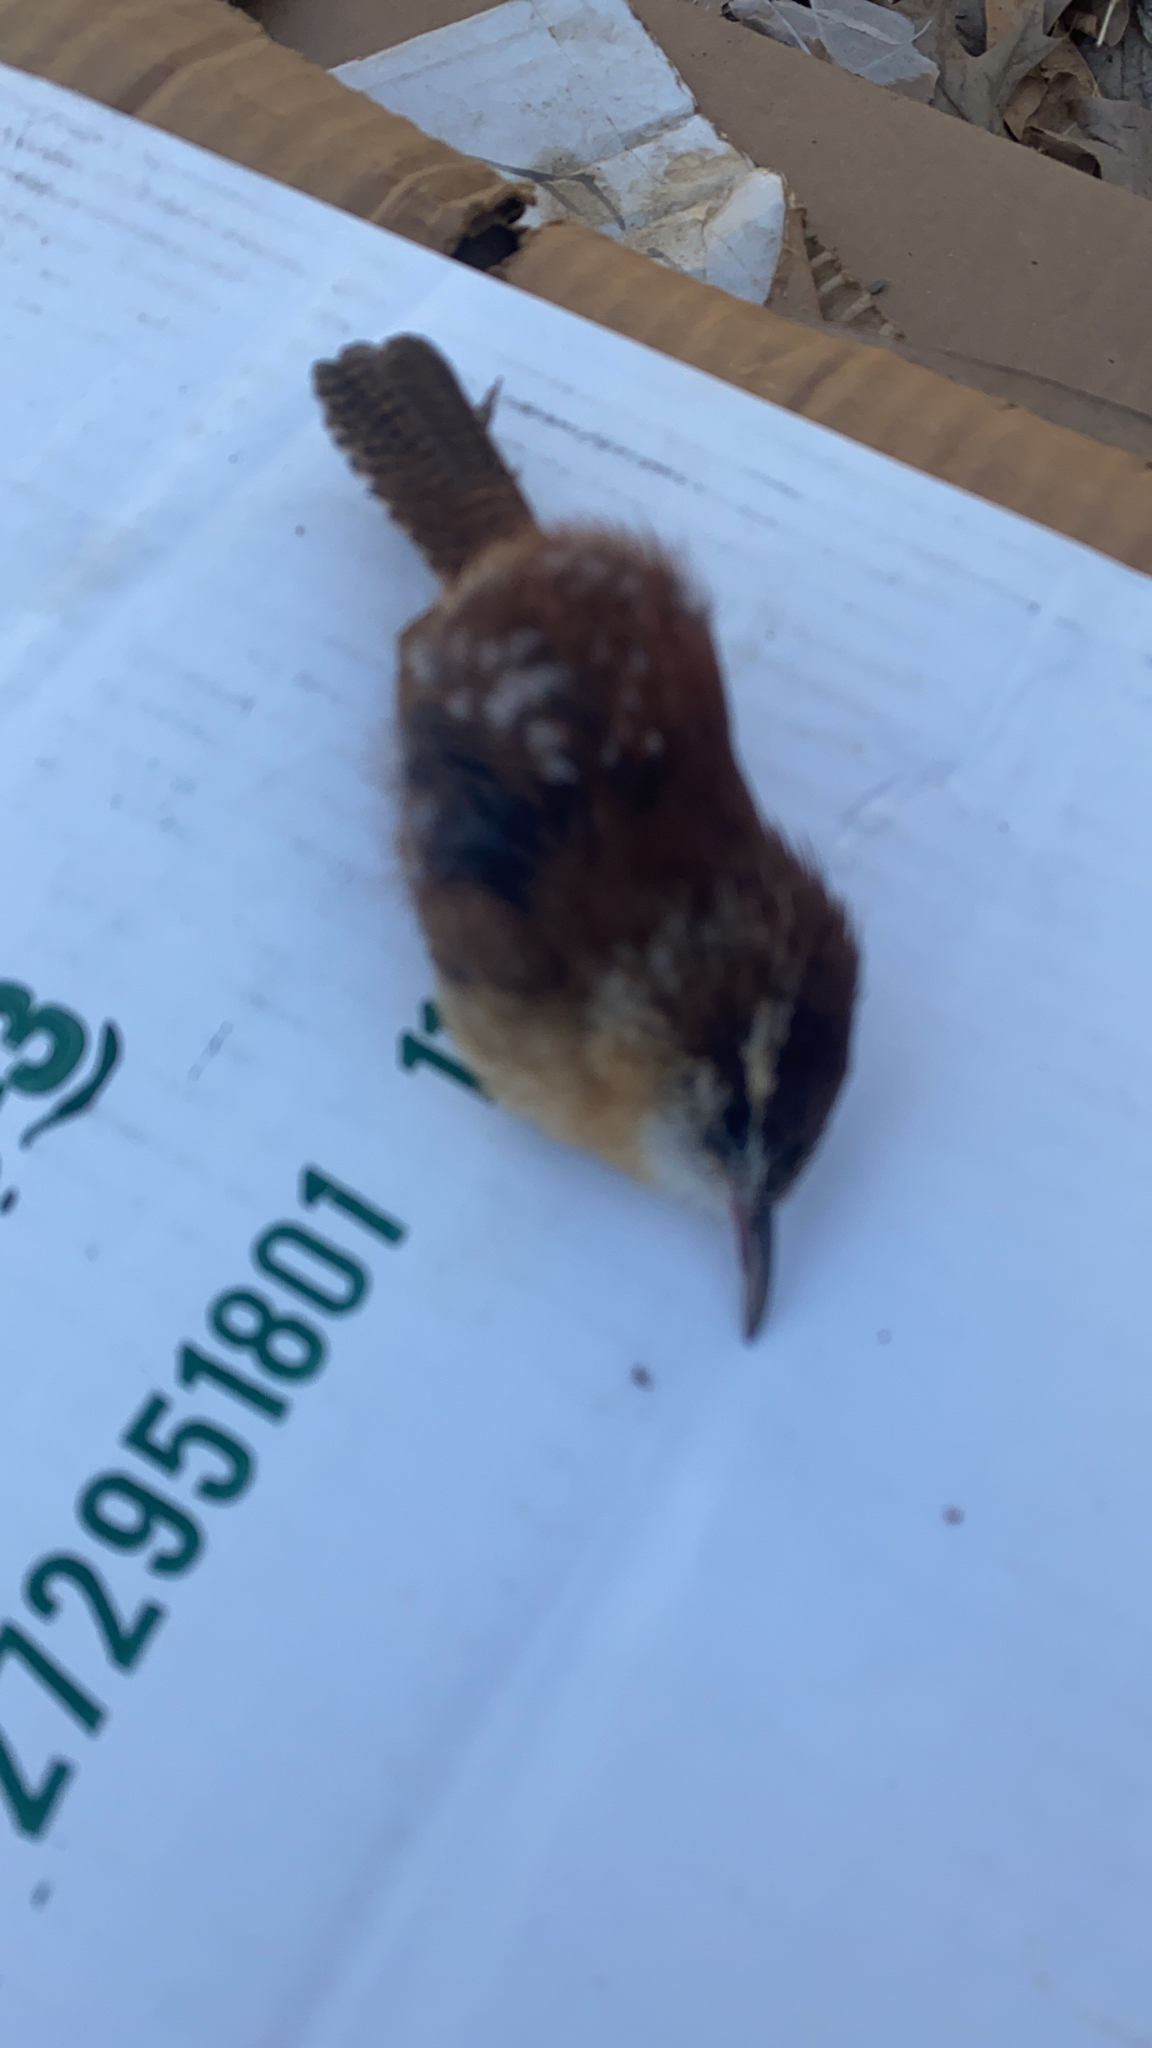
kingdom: Animalia
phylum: Chordata
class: Aves
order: Passeriformes
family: Troglodytidae
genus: Thryothorus
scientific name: Thryothorus ludovicianus
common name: Carolina wren
